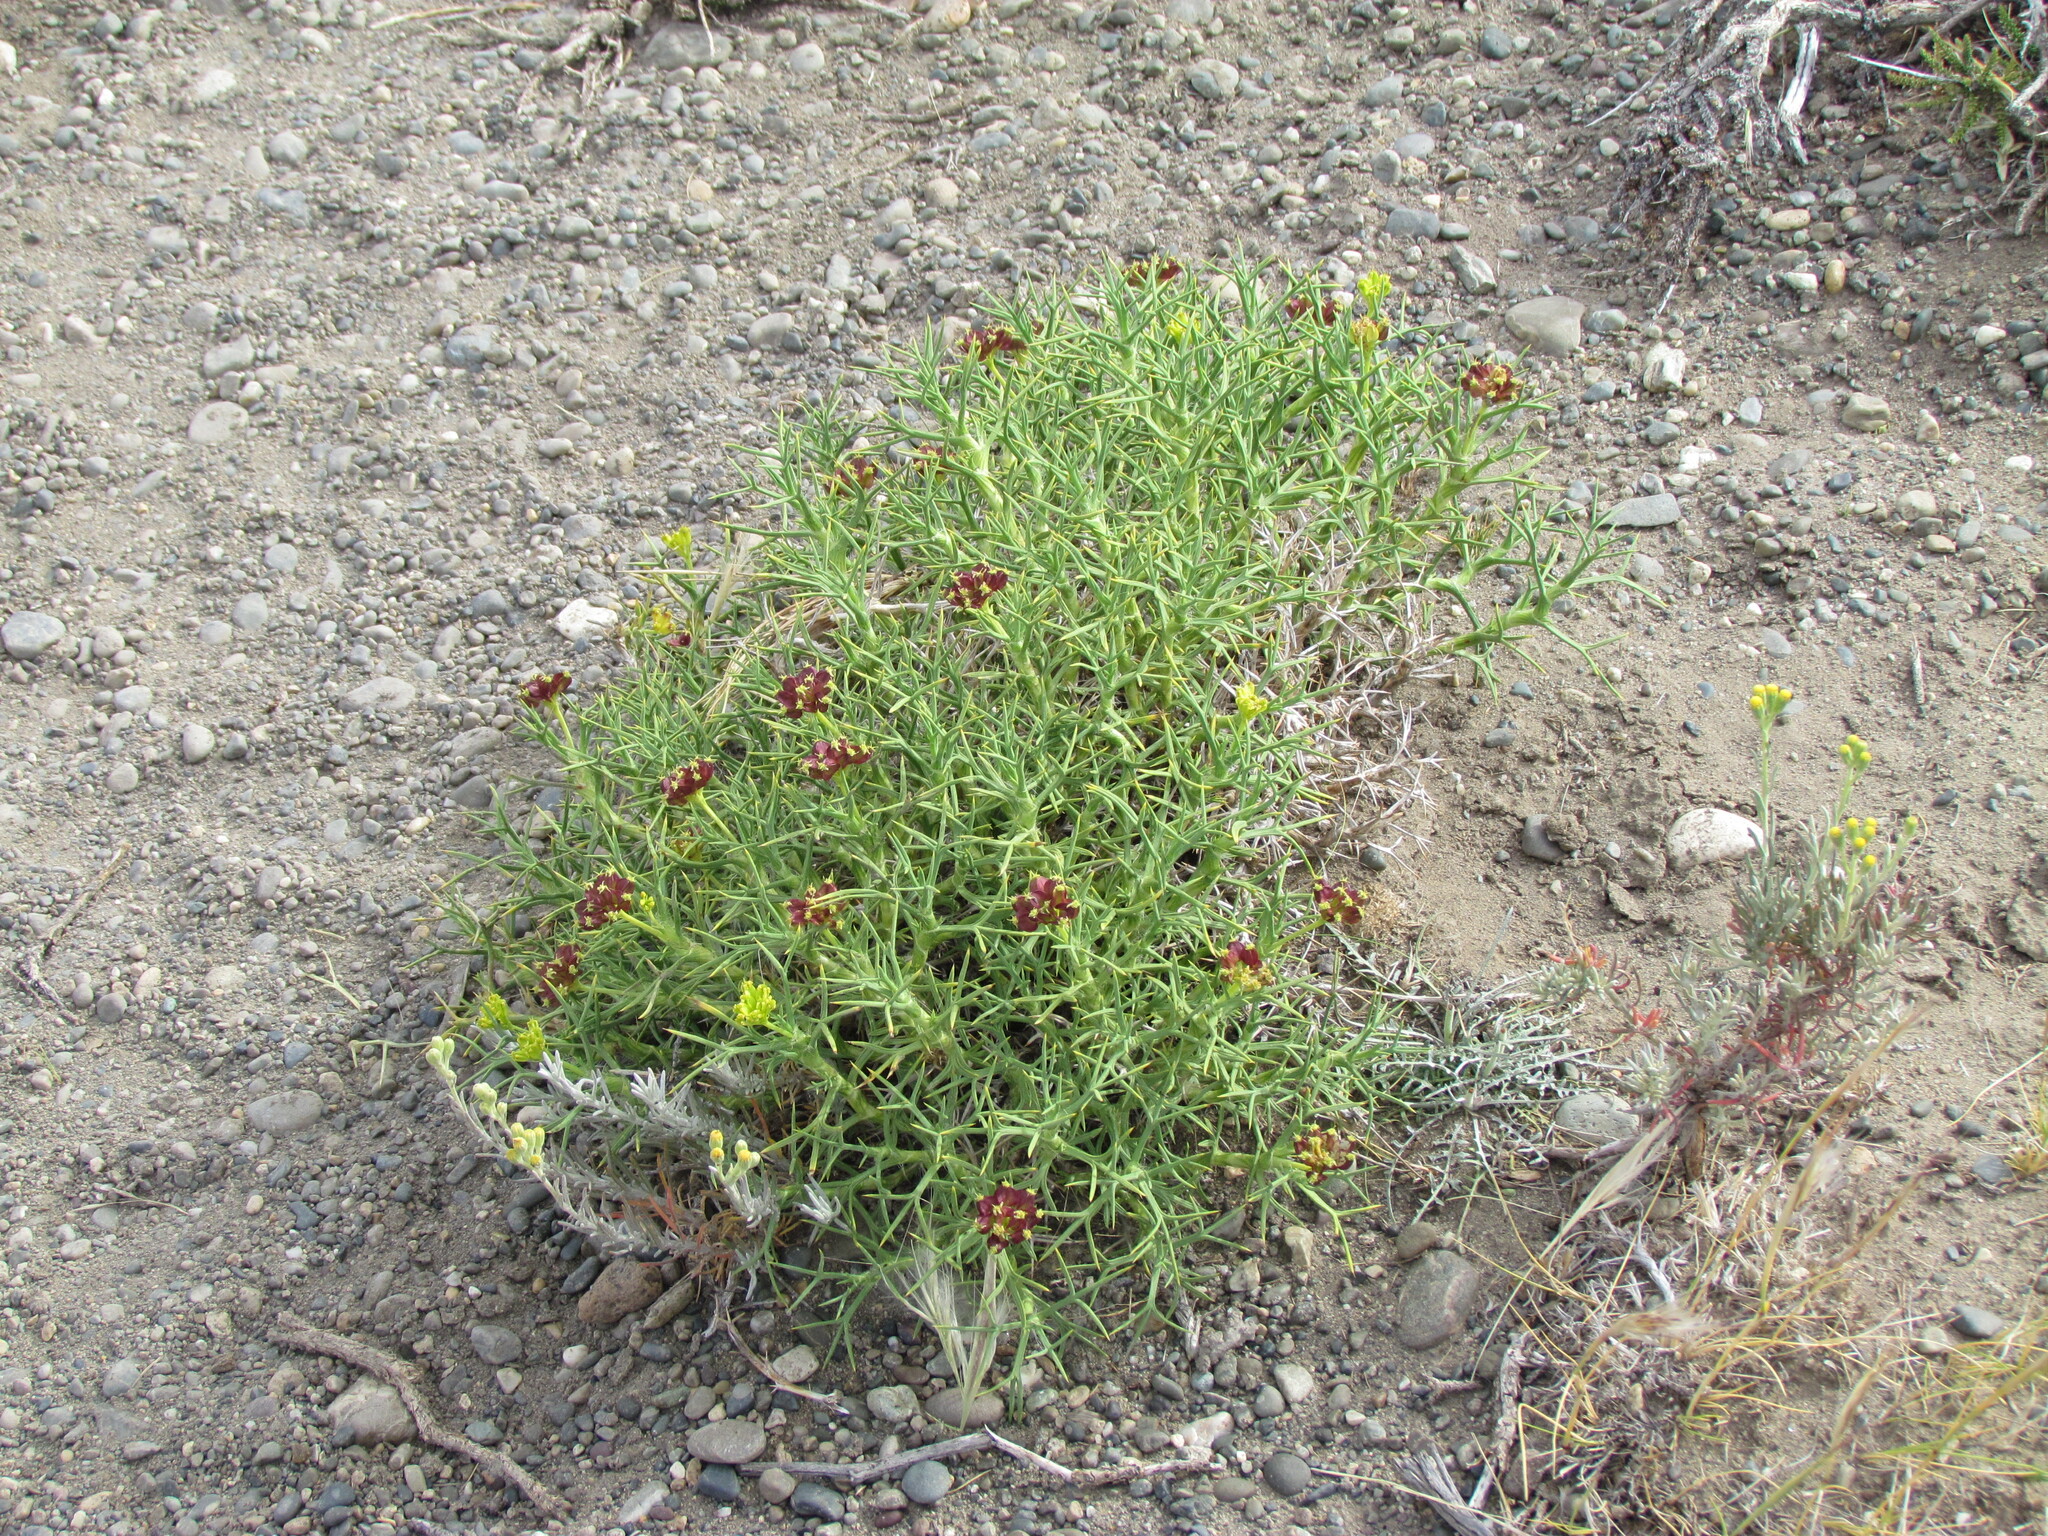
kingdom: Plantae
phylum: Tracheophyta
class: Magnoliopsida
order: Apiales
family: Apiaceae
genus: Azorella
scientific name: Azorella prolifera
